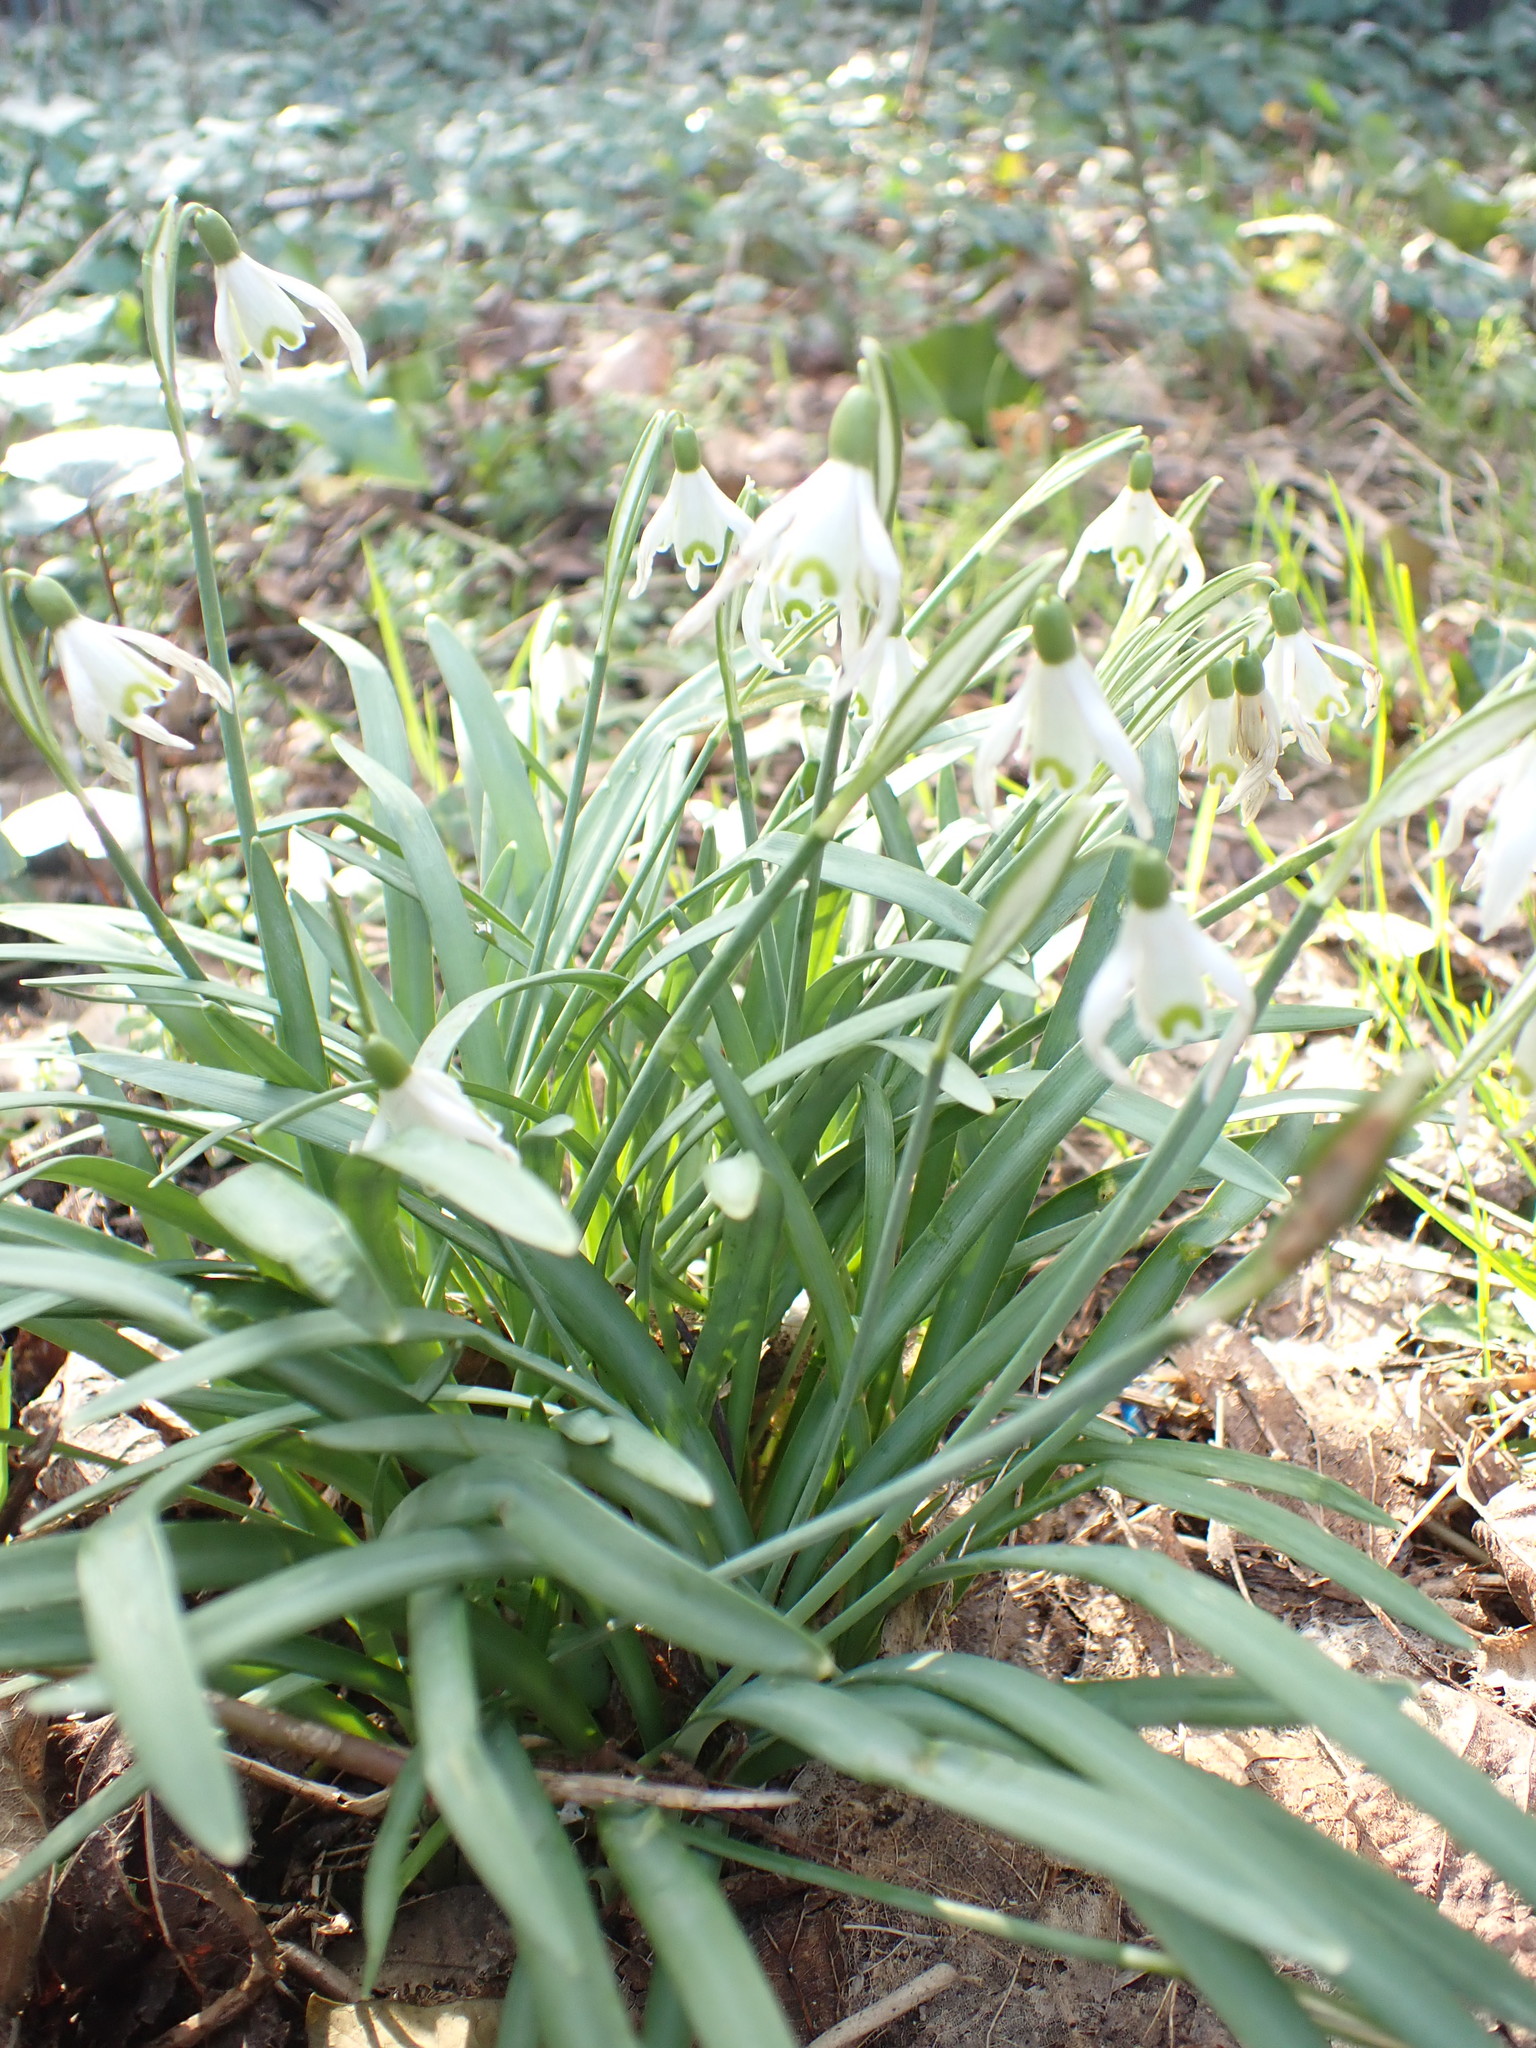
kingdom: Plantae
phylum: Tracheophyta
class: Liliopsida
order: Asparagales
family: Amaryllidaceae
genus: Galanthus
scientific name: Galanthus nivalis
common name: Snowdrop
